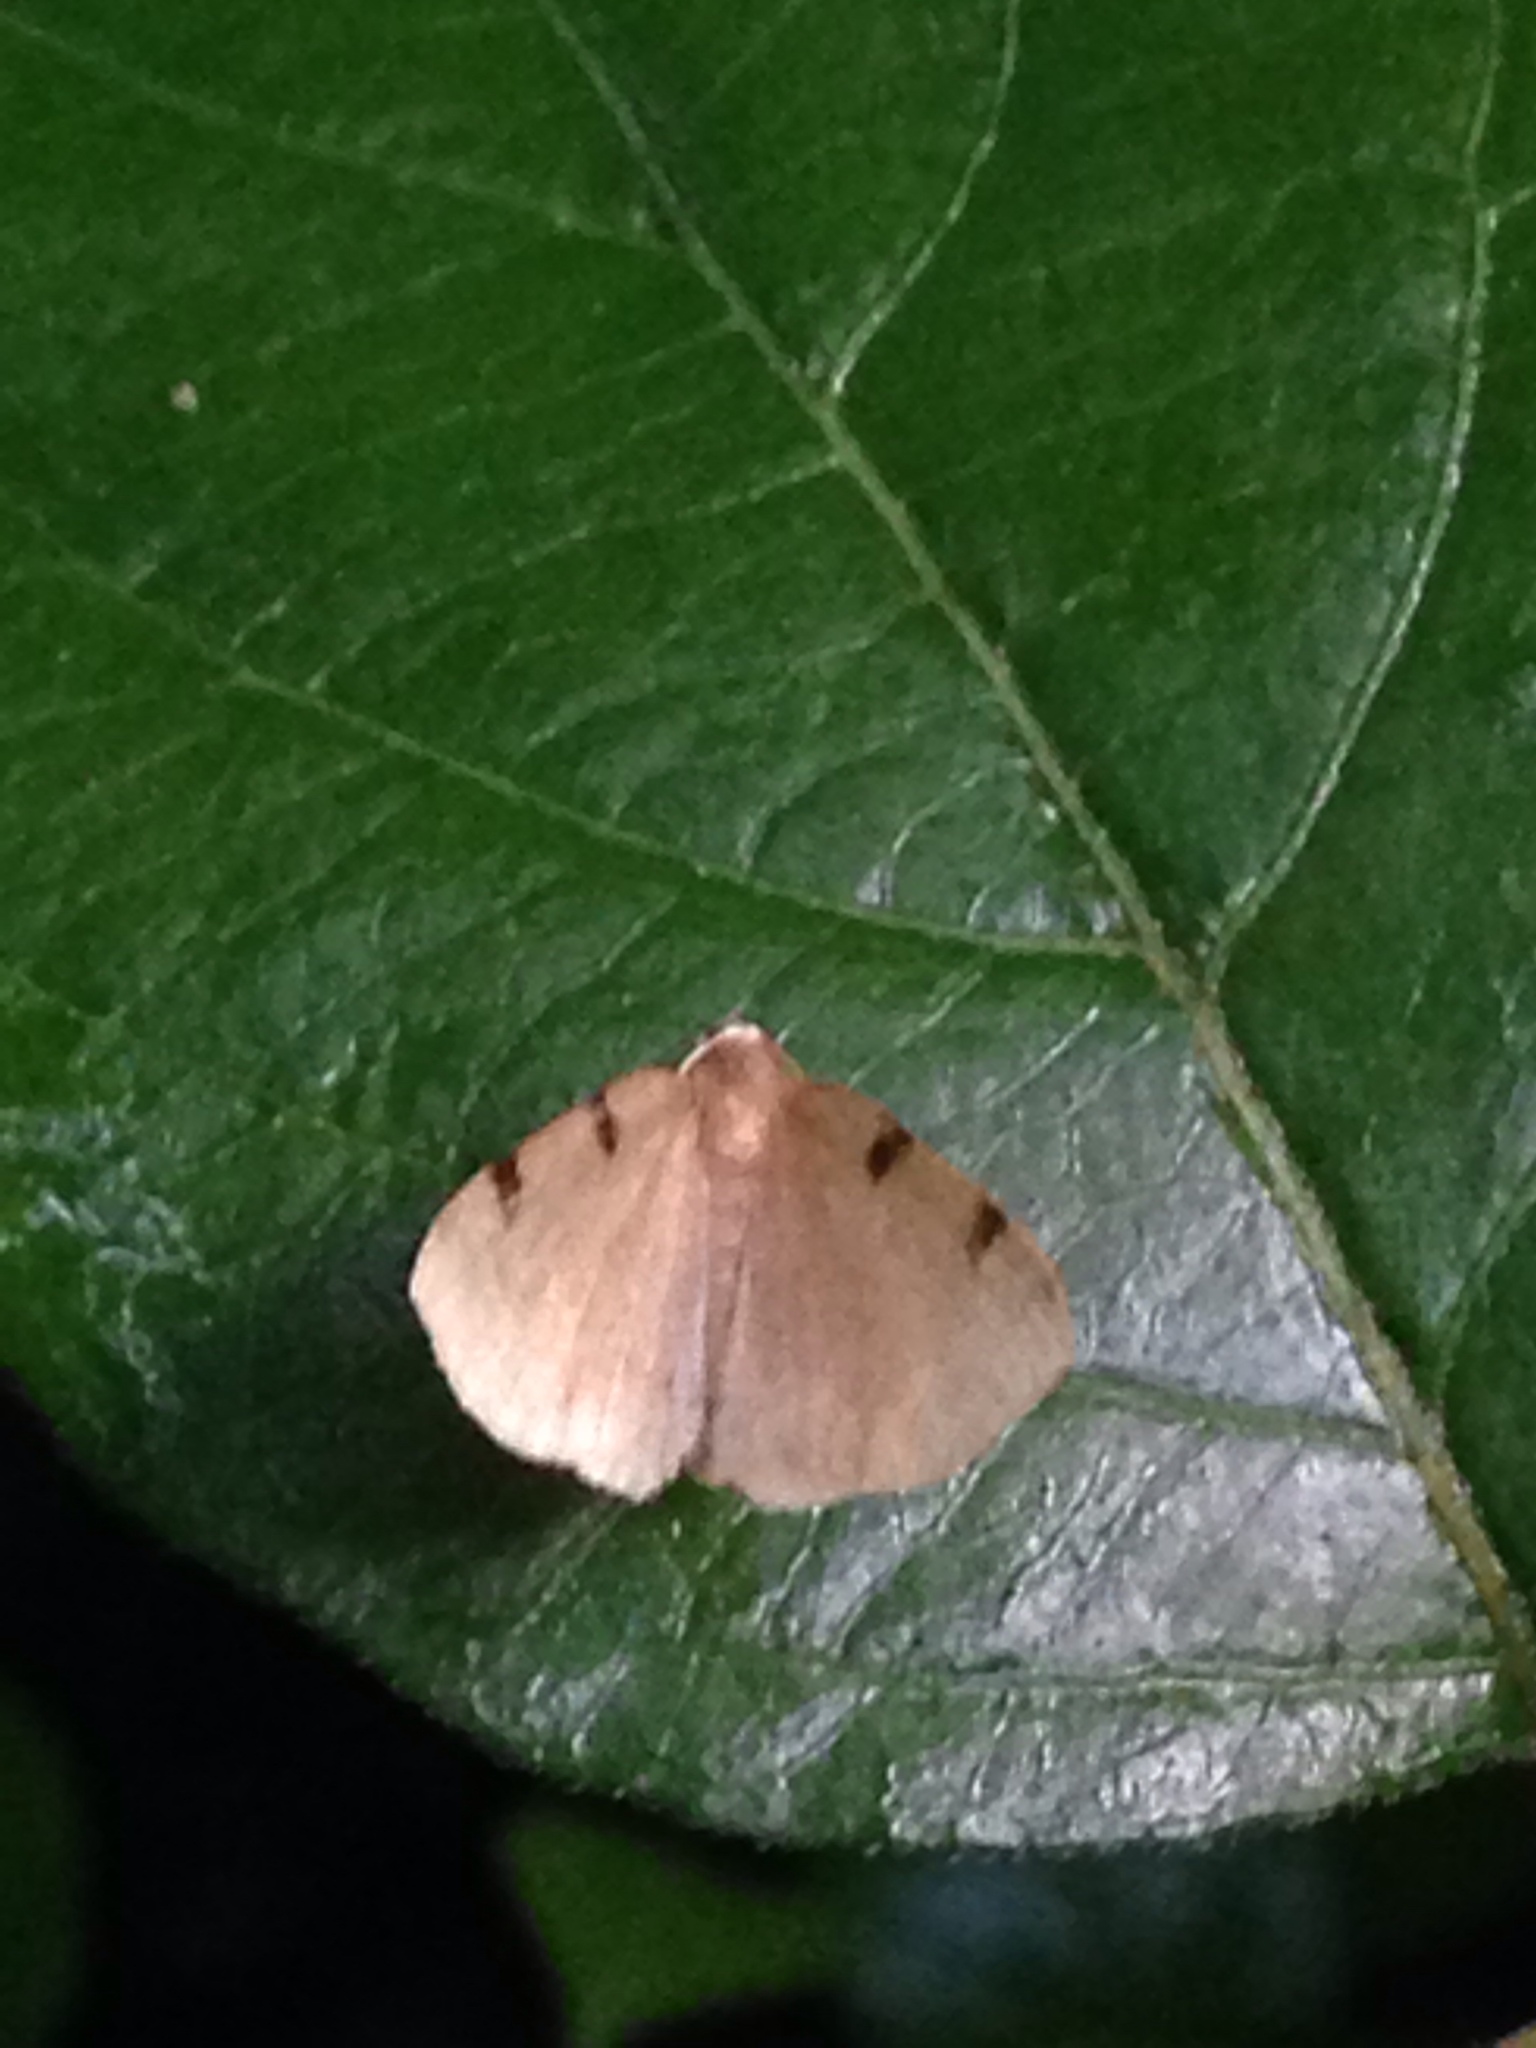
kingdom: Animalia
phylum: Arthropoda
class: Insecta
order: Lepidoptera
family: Geometridae
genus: Heterophleps
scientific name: Heterophleps triguttaria
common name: Three-spotted fillip
